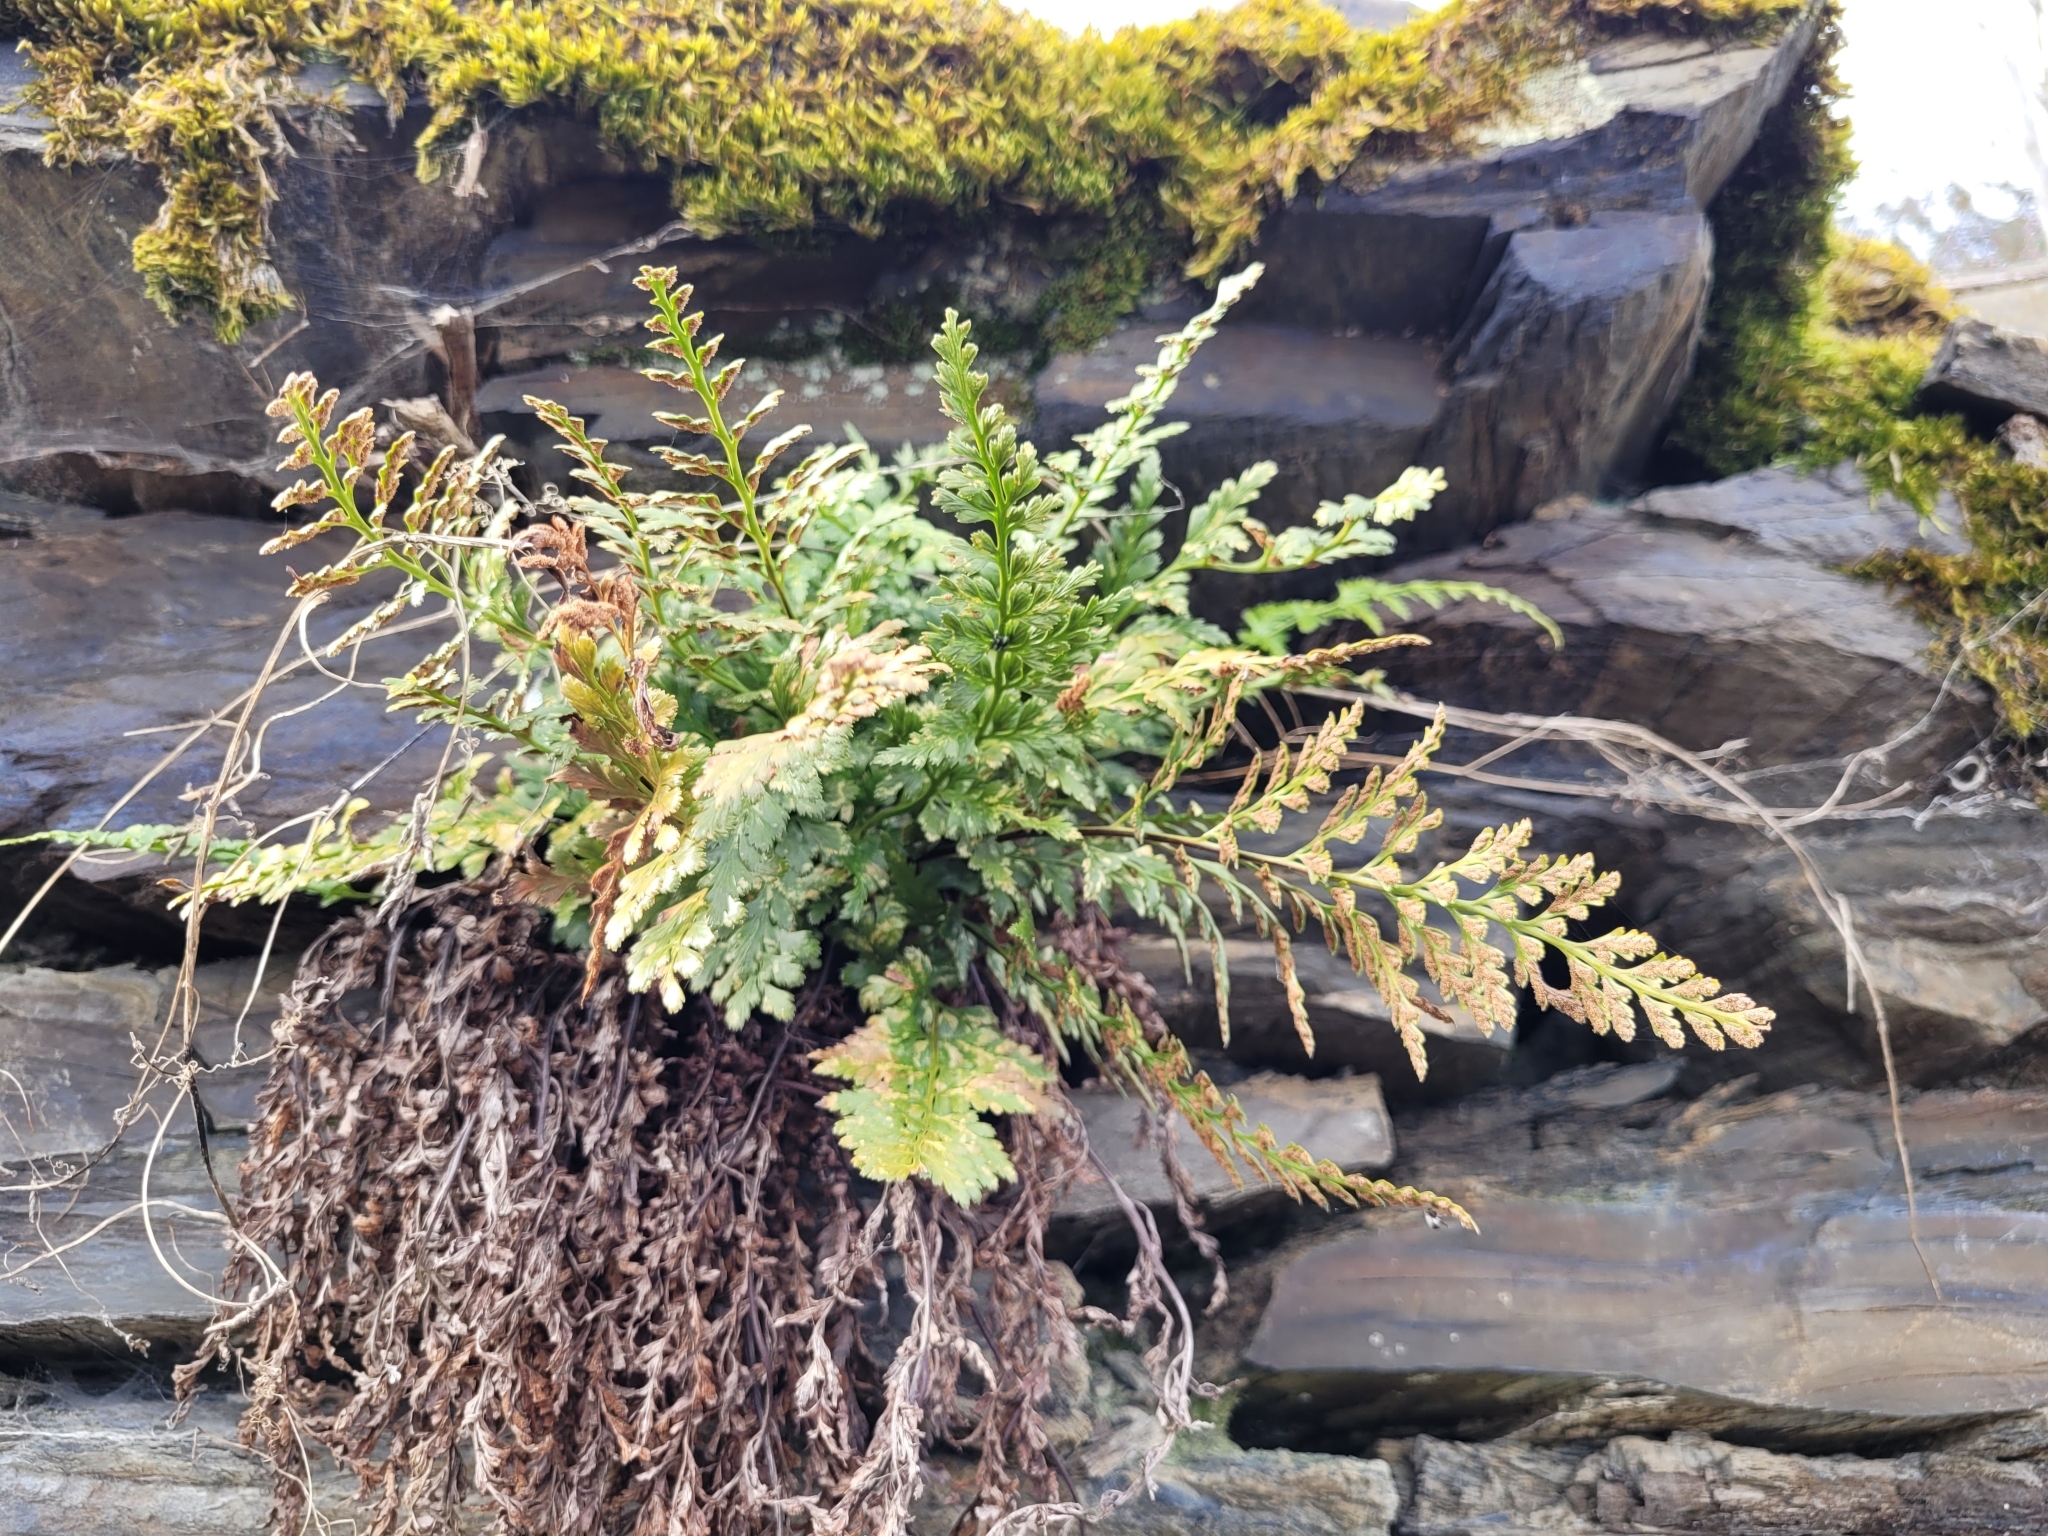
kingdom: Plantae
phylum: Tracheophyta
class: Polypodiopsida
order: Polypodiales
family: Aspleniaceae
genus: Asplenium
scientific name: Asplenium adiantum-nigrum
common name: Black spleenwort
